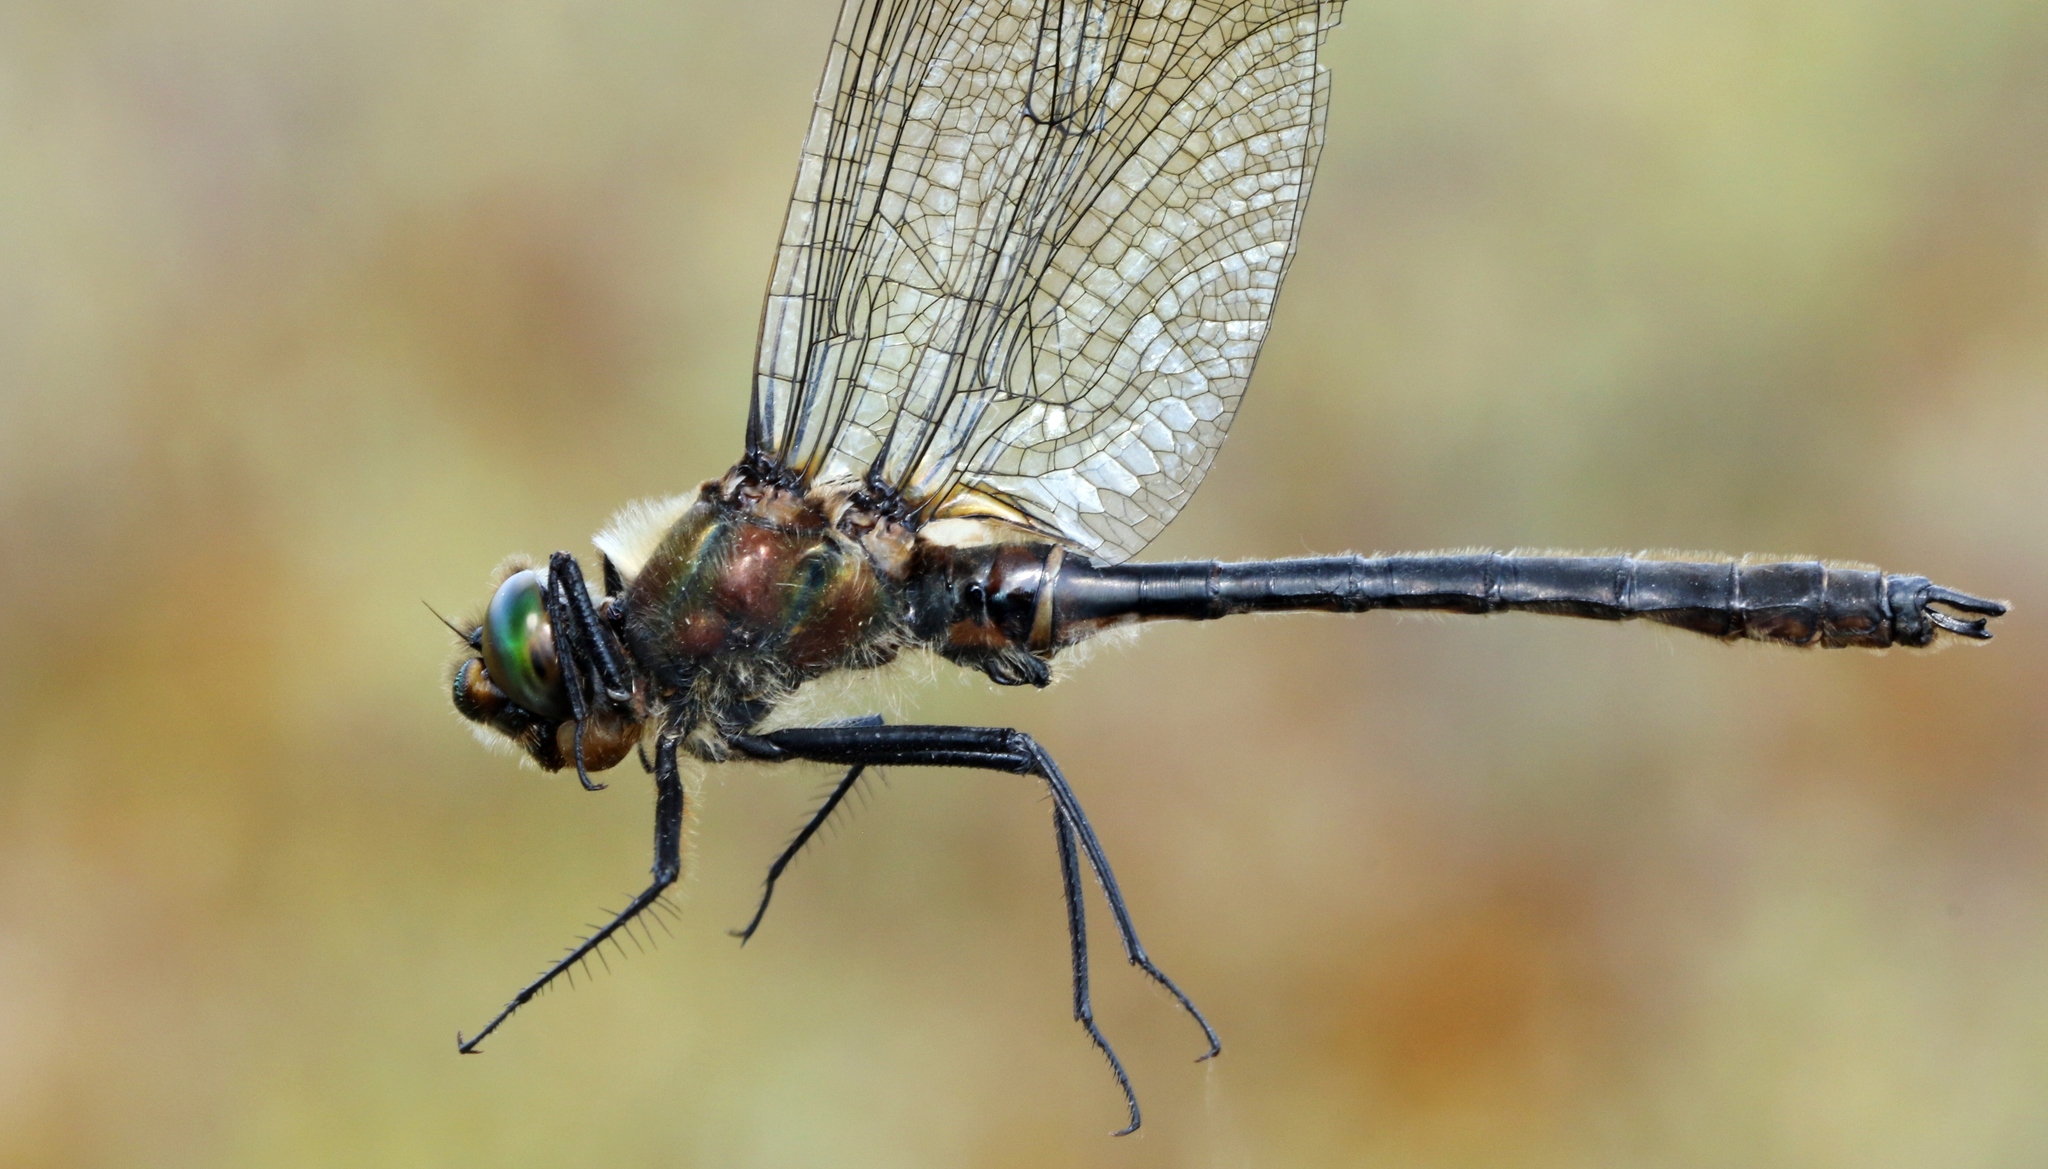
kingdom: Animalia
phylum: Arthropoda
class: Insecta
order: Odonata
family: Corduliidae
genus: Cordulia
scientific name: Cordulia shurtleffii
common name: American emerald
